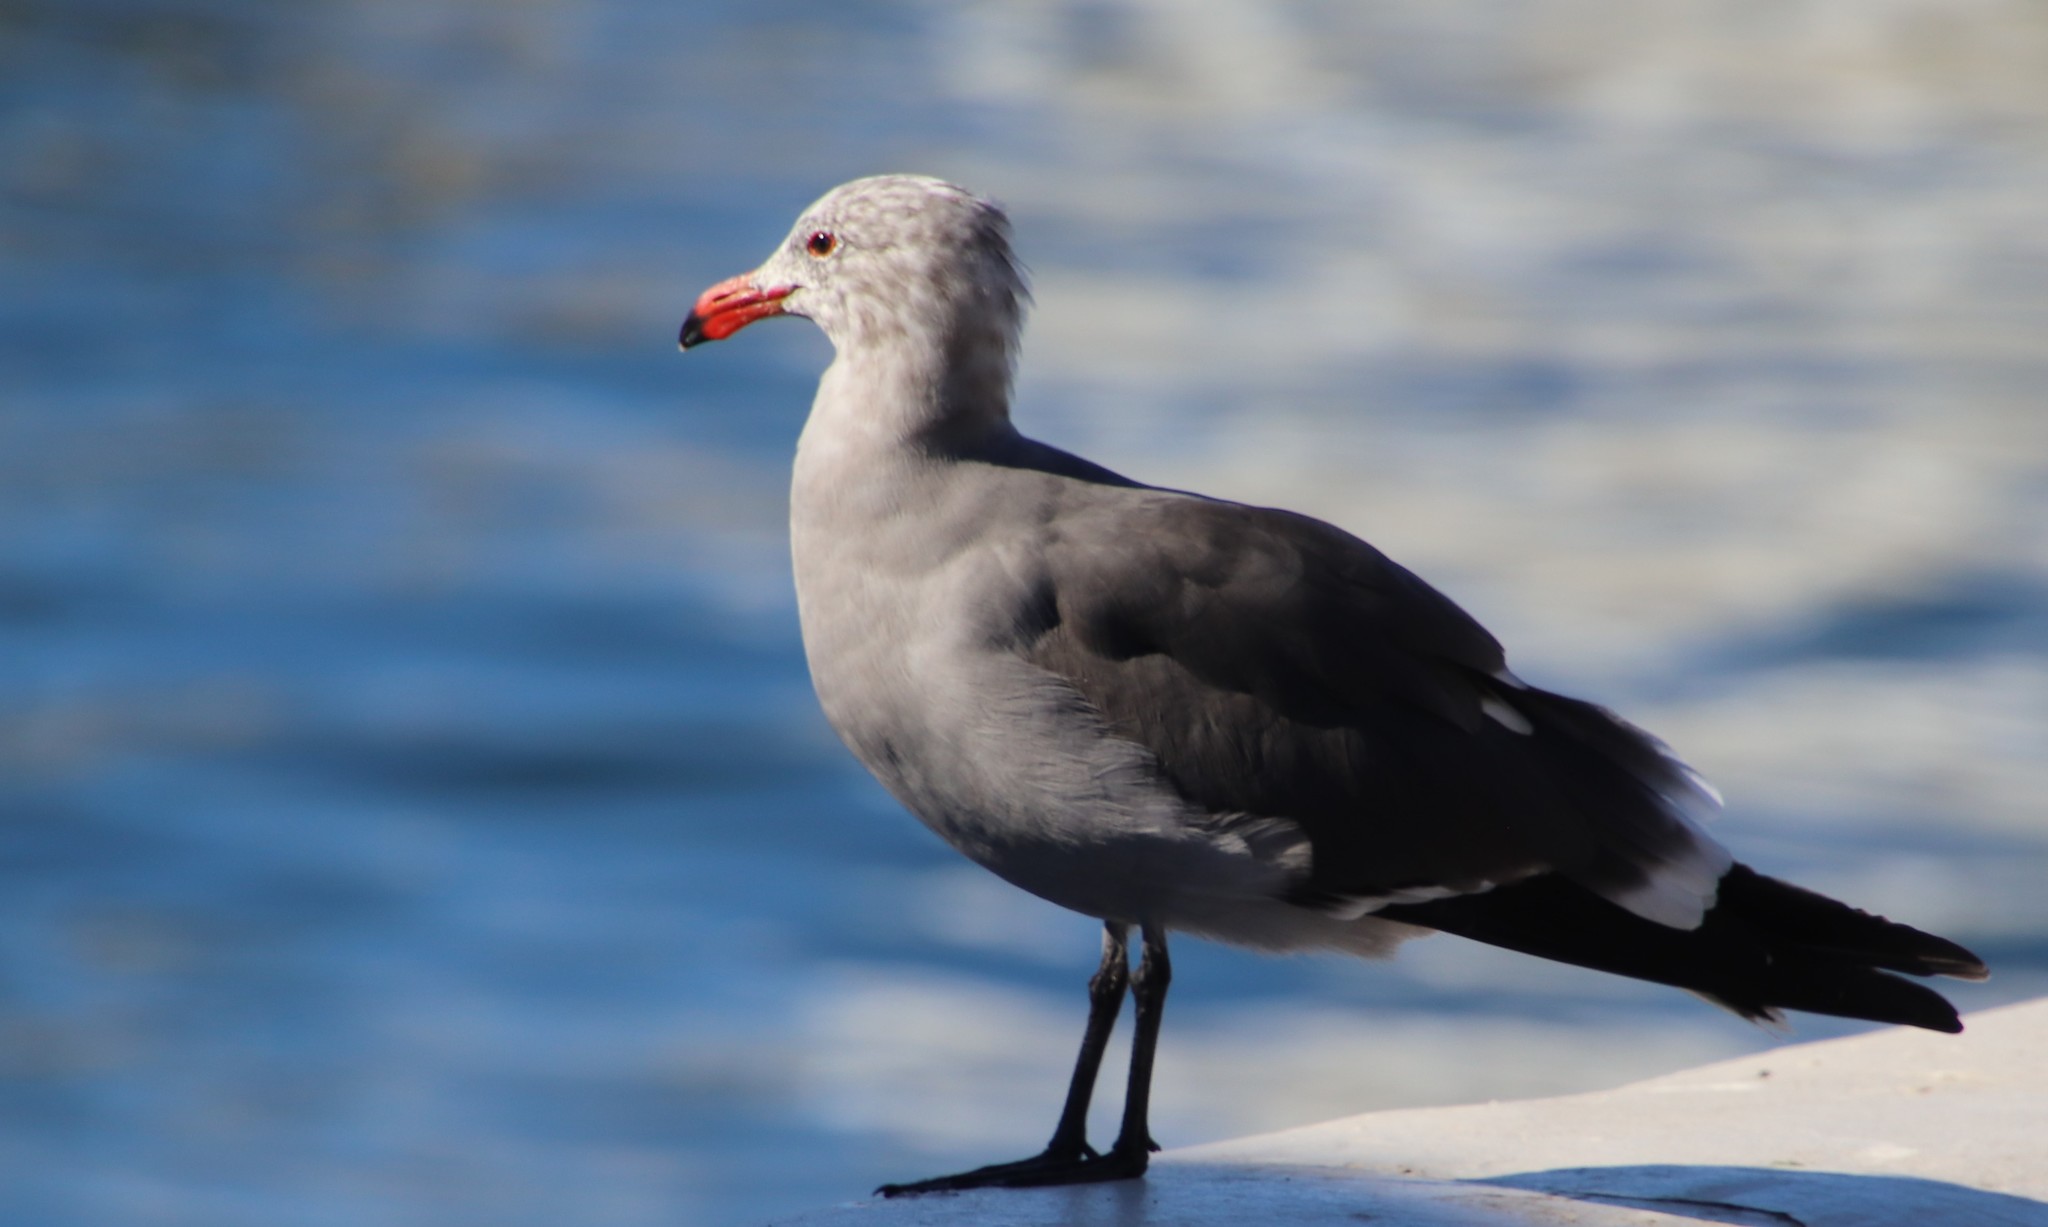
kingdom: Animalia
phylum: Chordata
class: Aves
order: Charadriiformes
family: Laridae
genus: Larus
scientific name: Larus heermanni
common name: Heermann's gull
